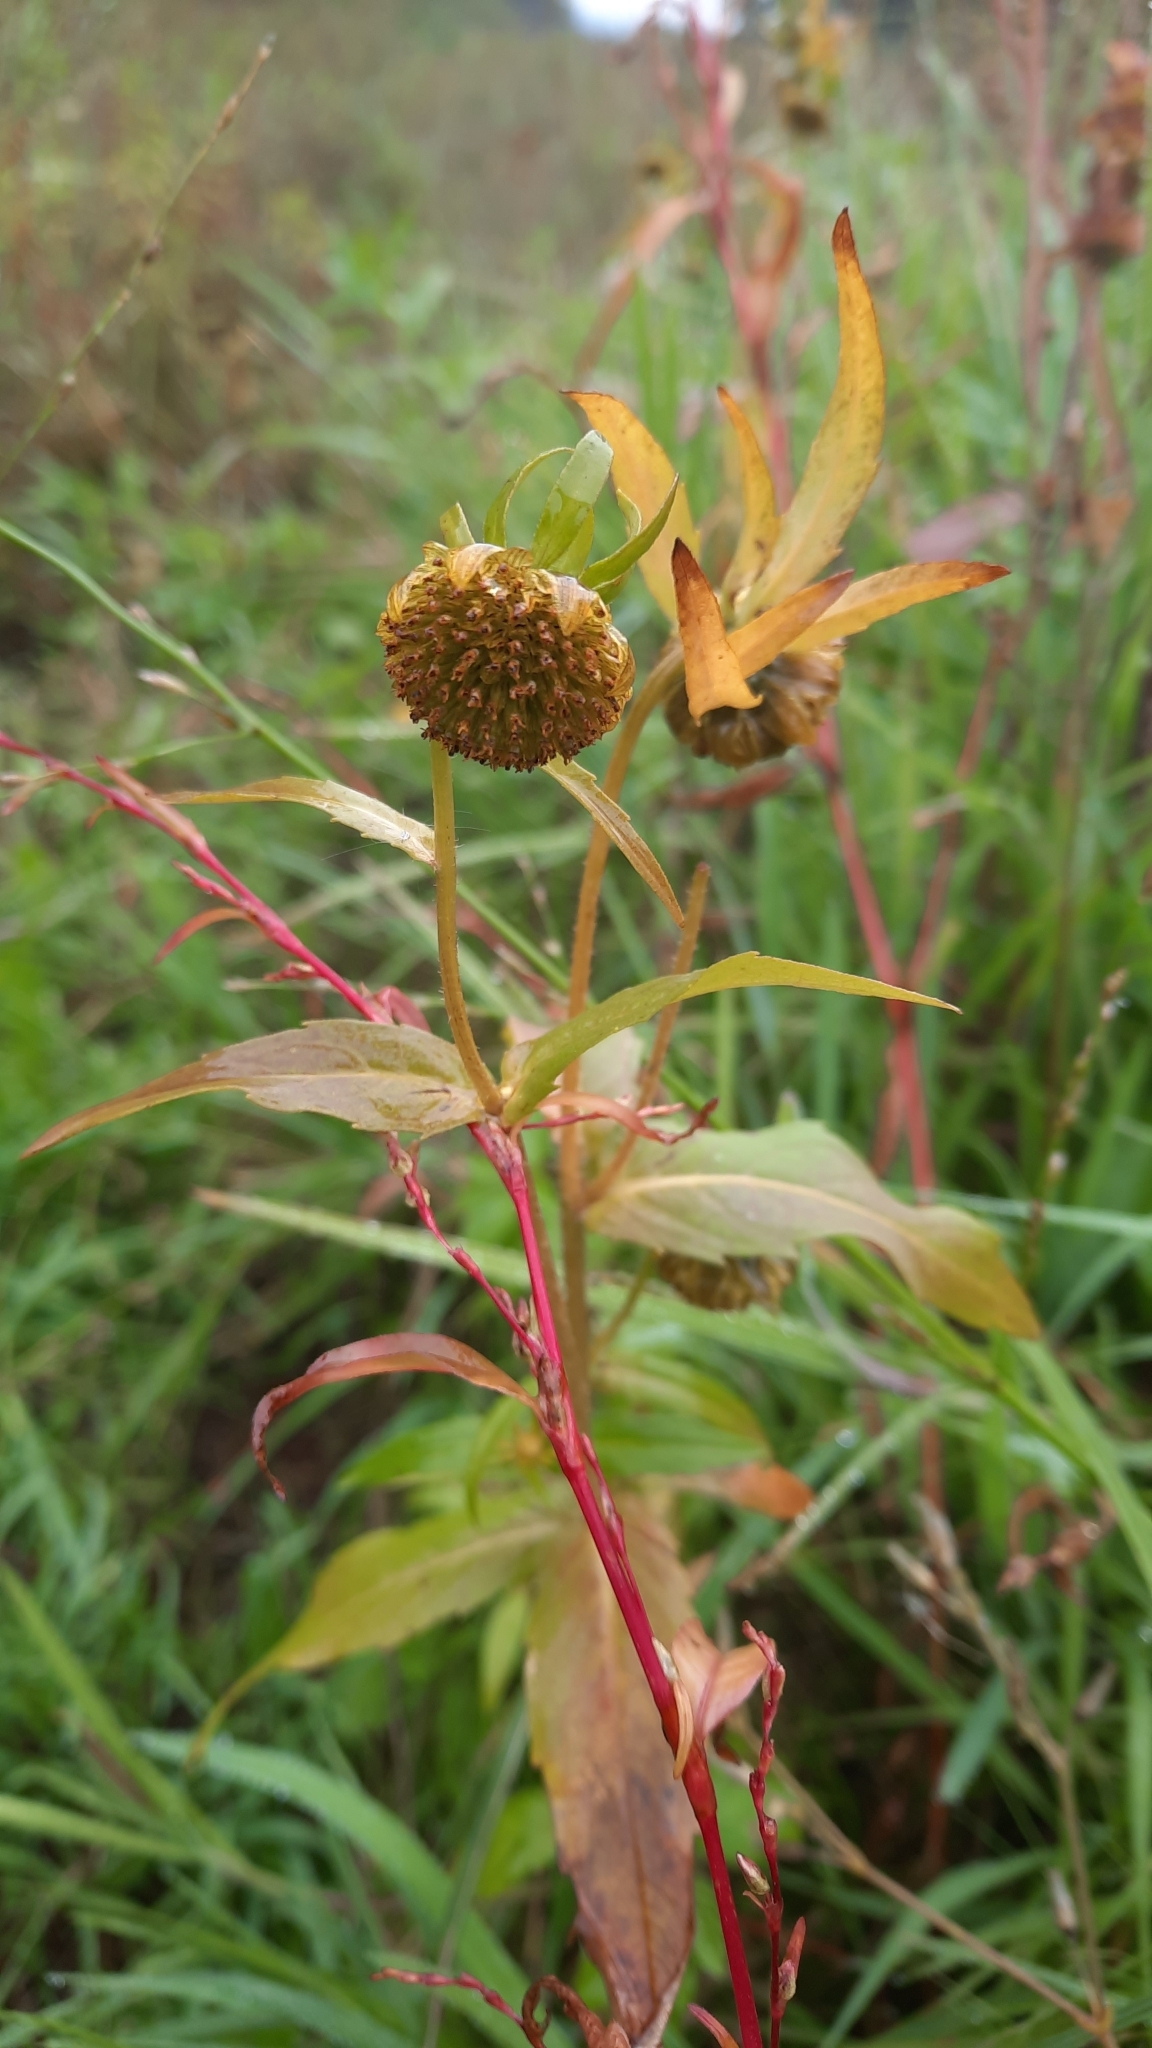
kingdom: Plantae
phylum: Tracheophyta
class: Magnoliopsida
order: Asterales
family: Asteraceae
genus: Bidens
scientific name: Bidens cernua
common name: Nodding bur-marigold
